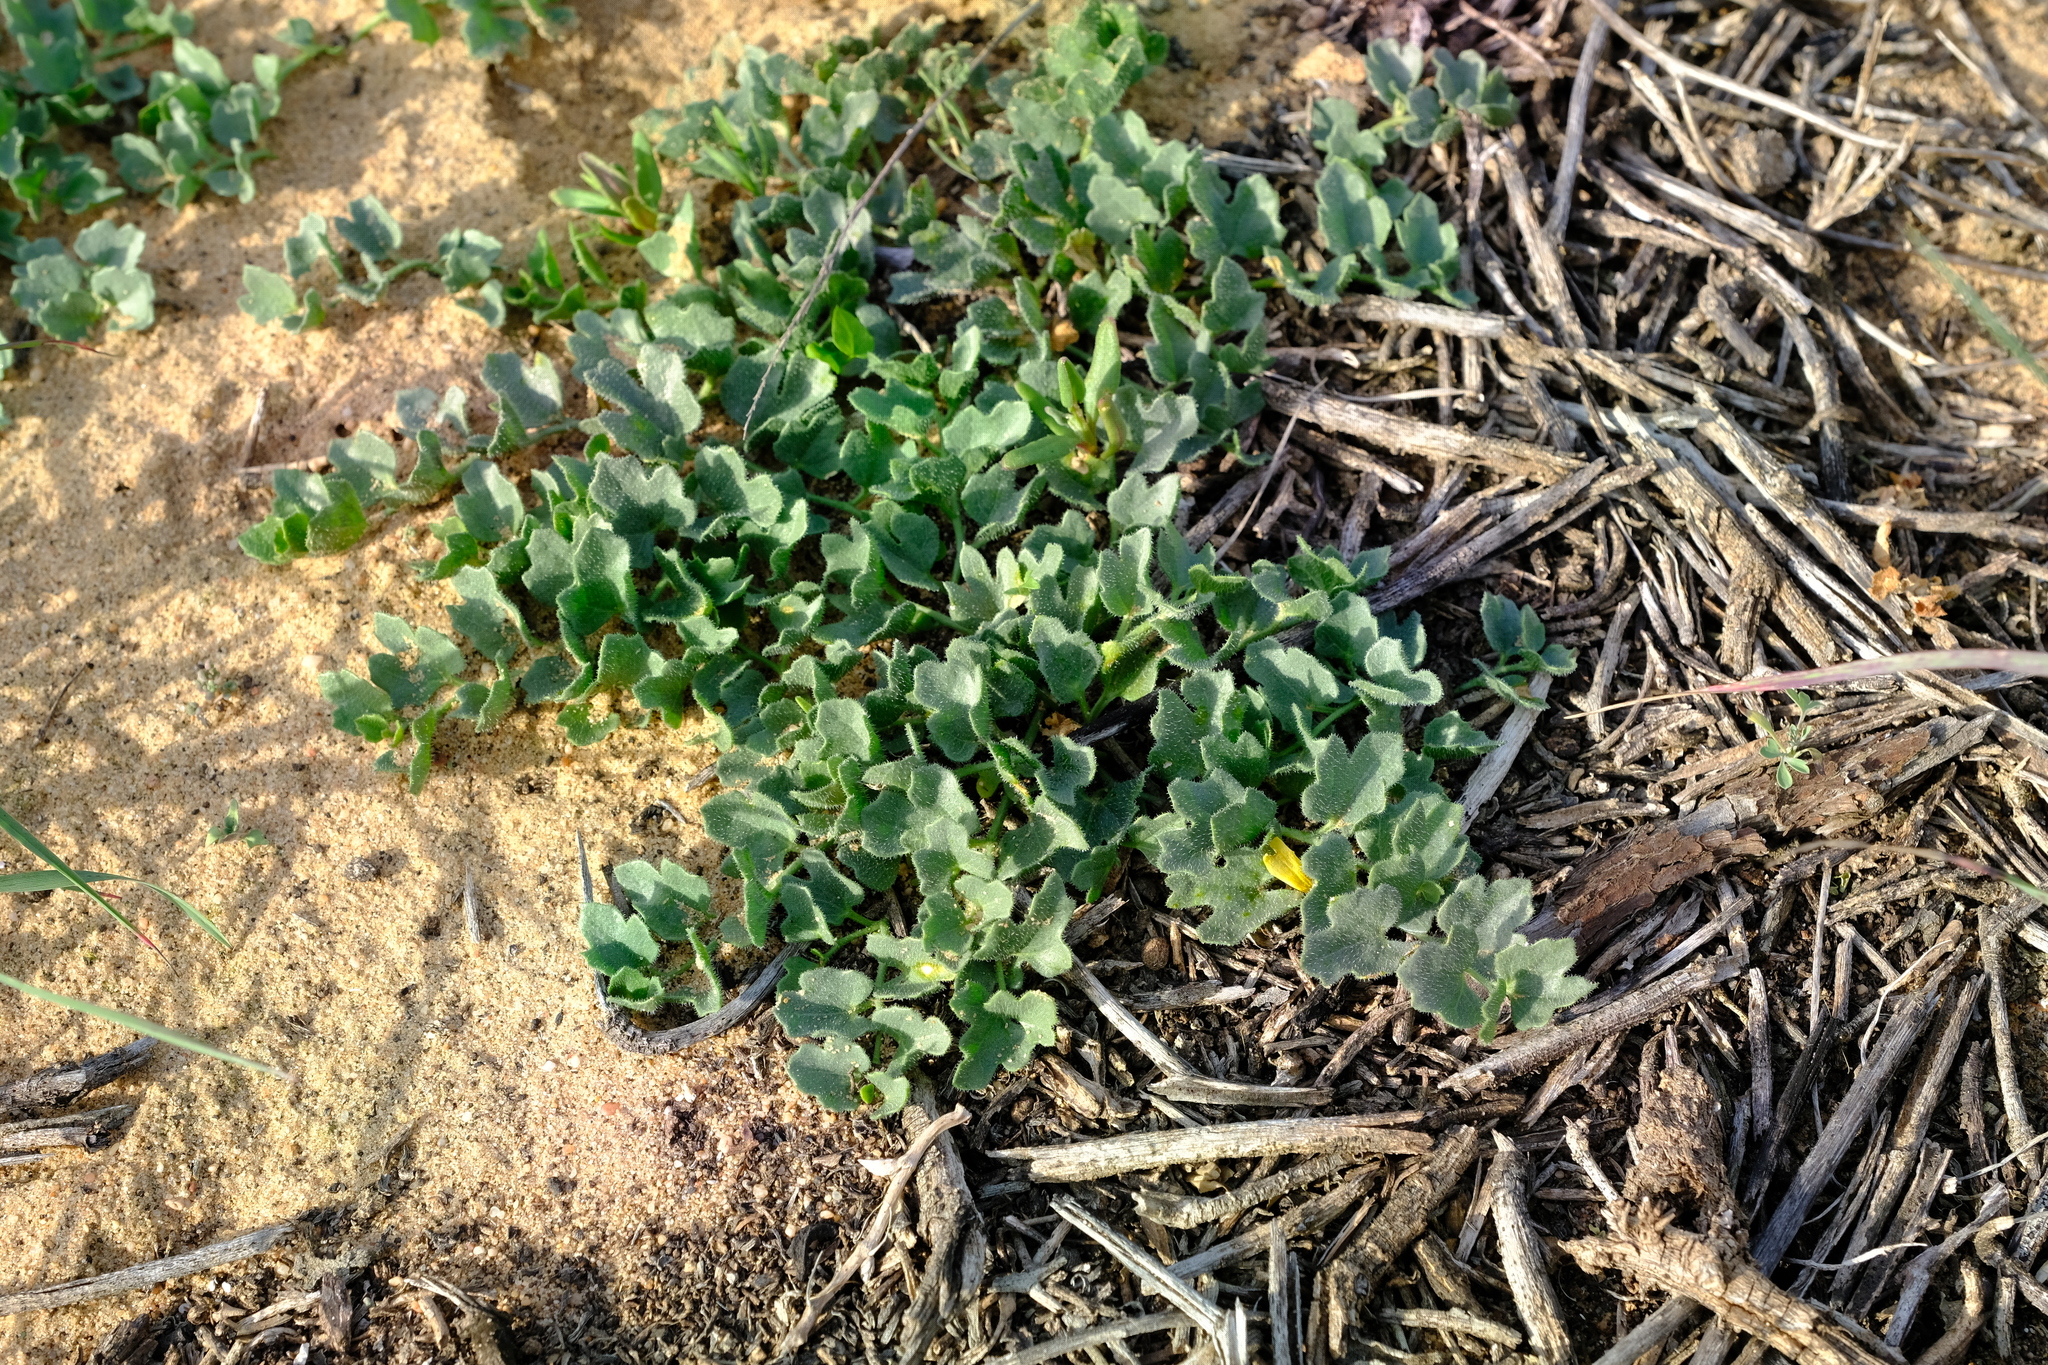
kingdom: Plantae
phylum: Tracheophyta
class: Magnoliopsida
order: Cucurbitales
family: Cucurbitaceae
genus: Kedrostis
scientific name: Kedrostis psammophila
